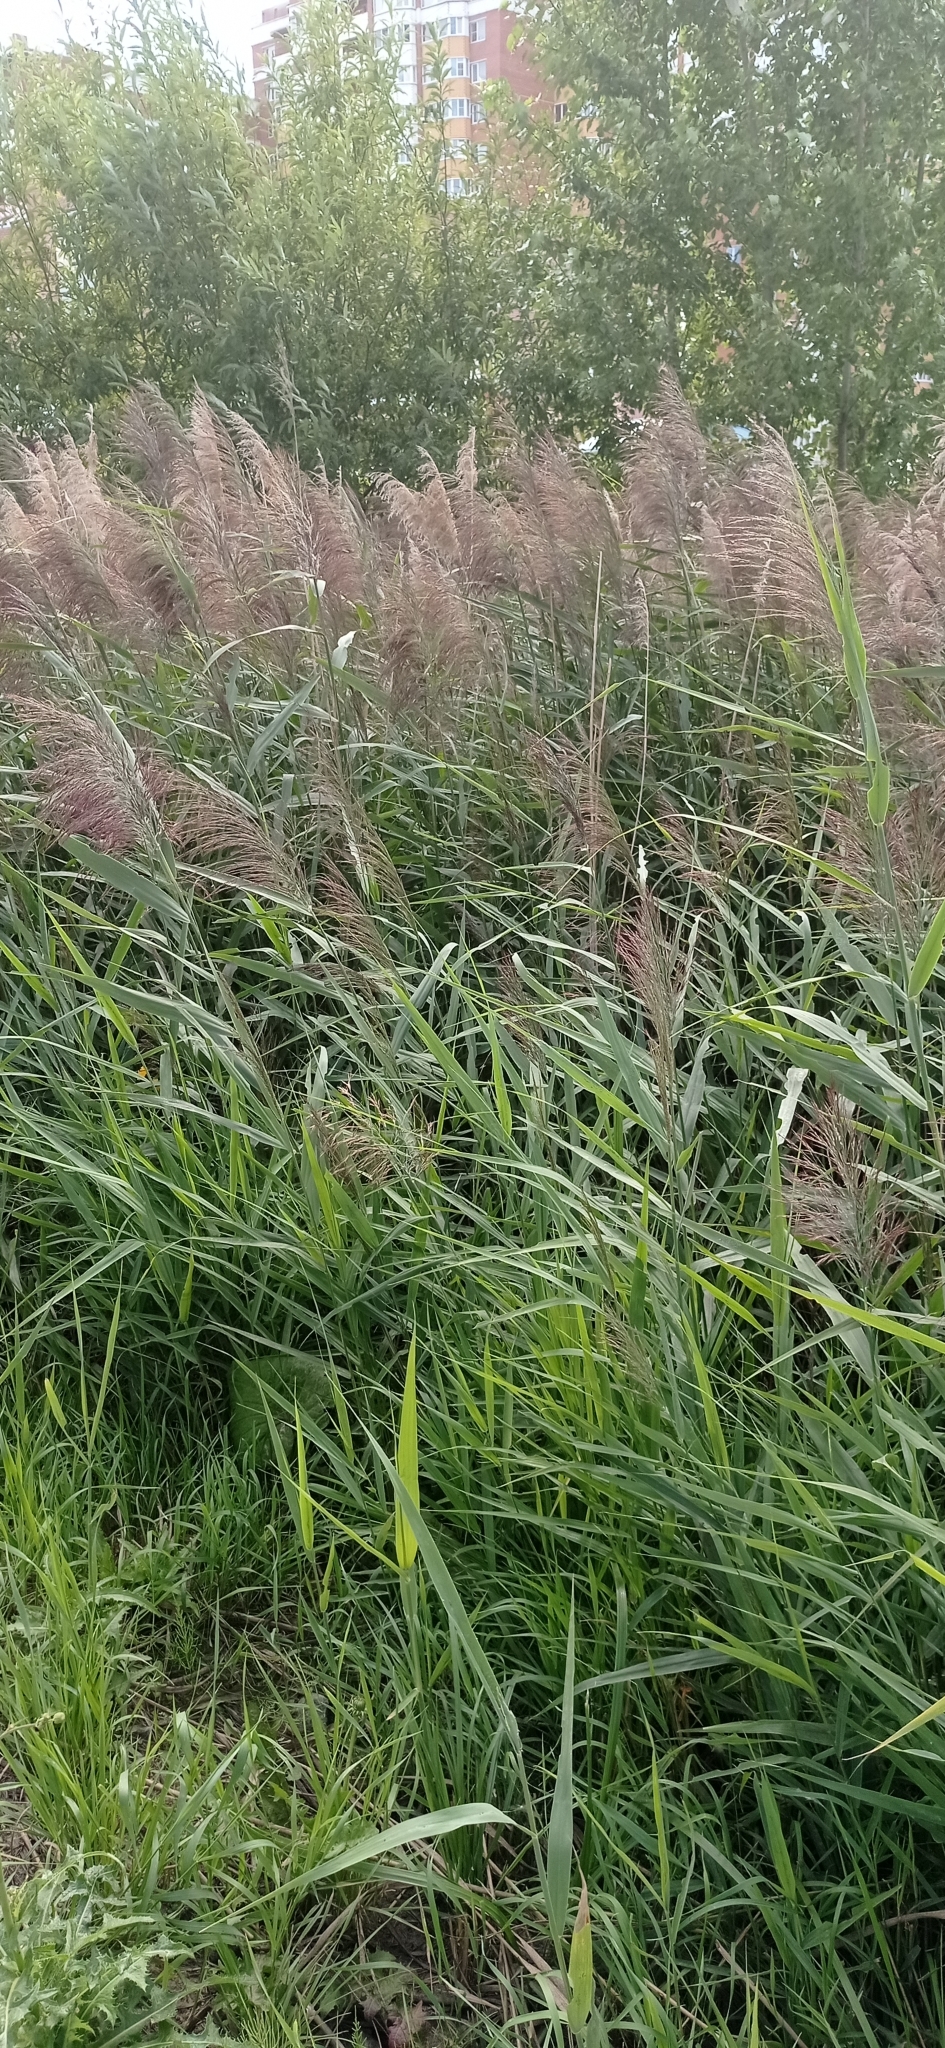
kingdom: Plantae
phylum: Tracheophyta
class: Liliopsida
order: Poales
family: Poaceae
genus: Phragmites
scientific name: Phragmites australis
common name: Common reed
